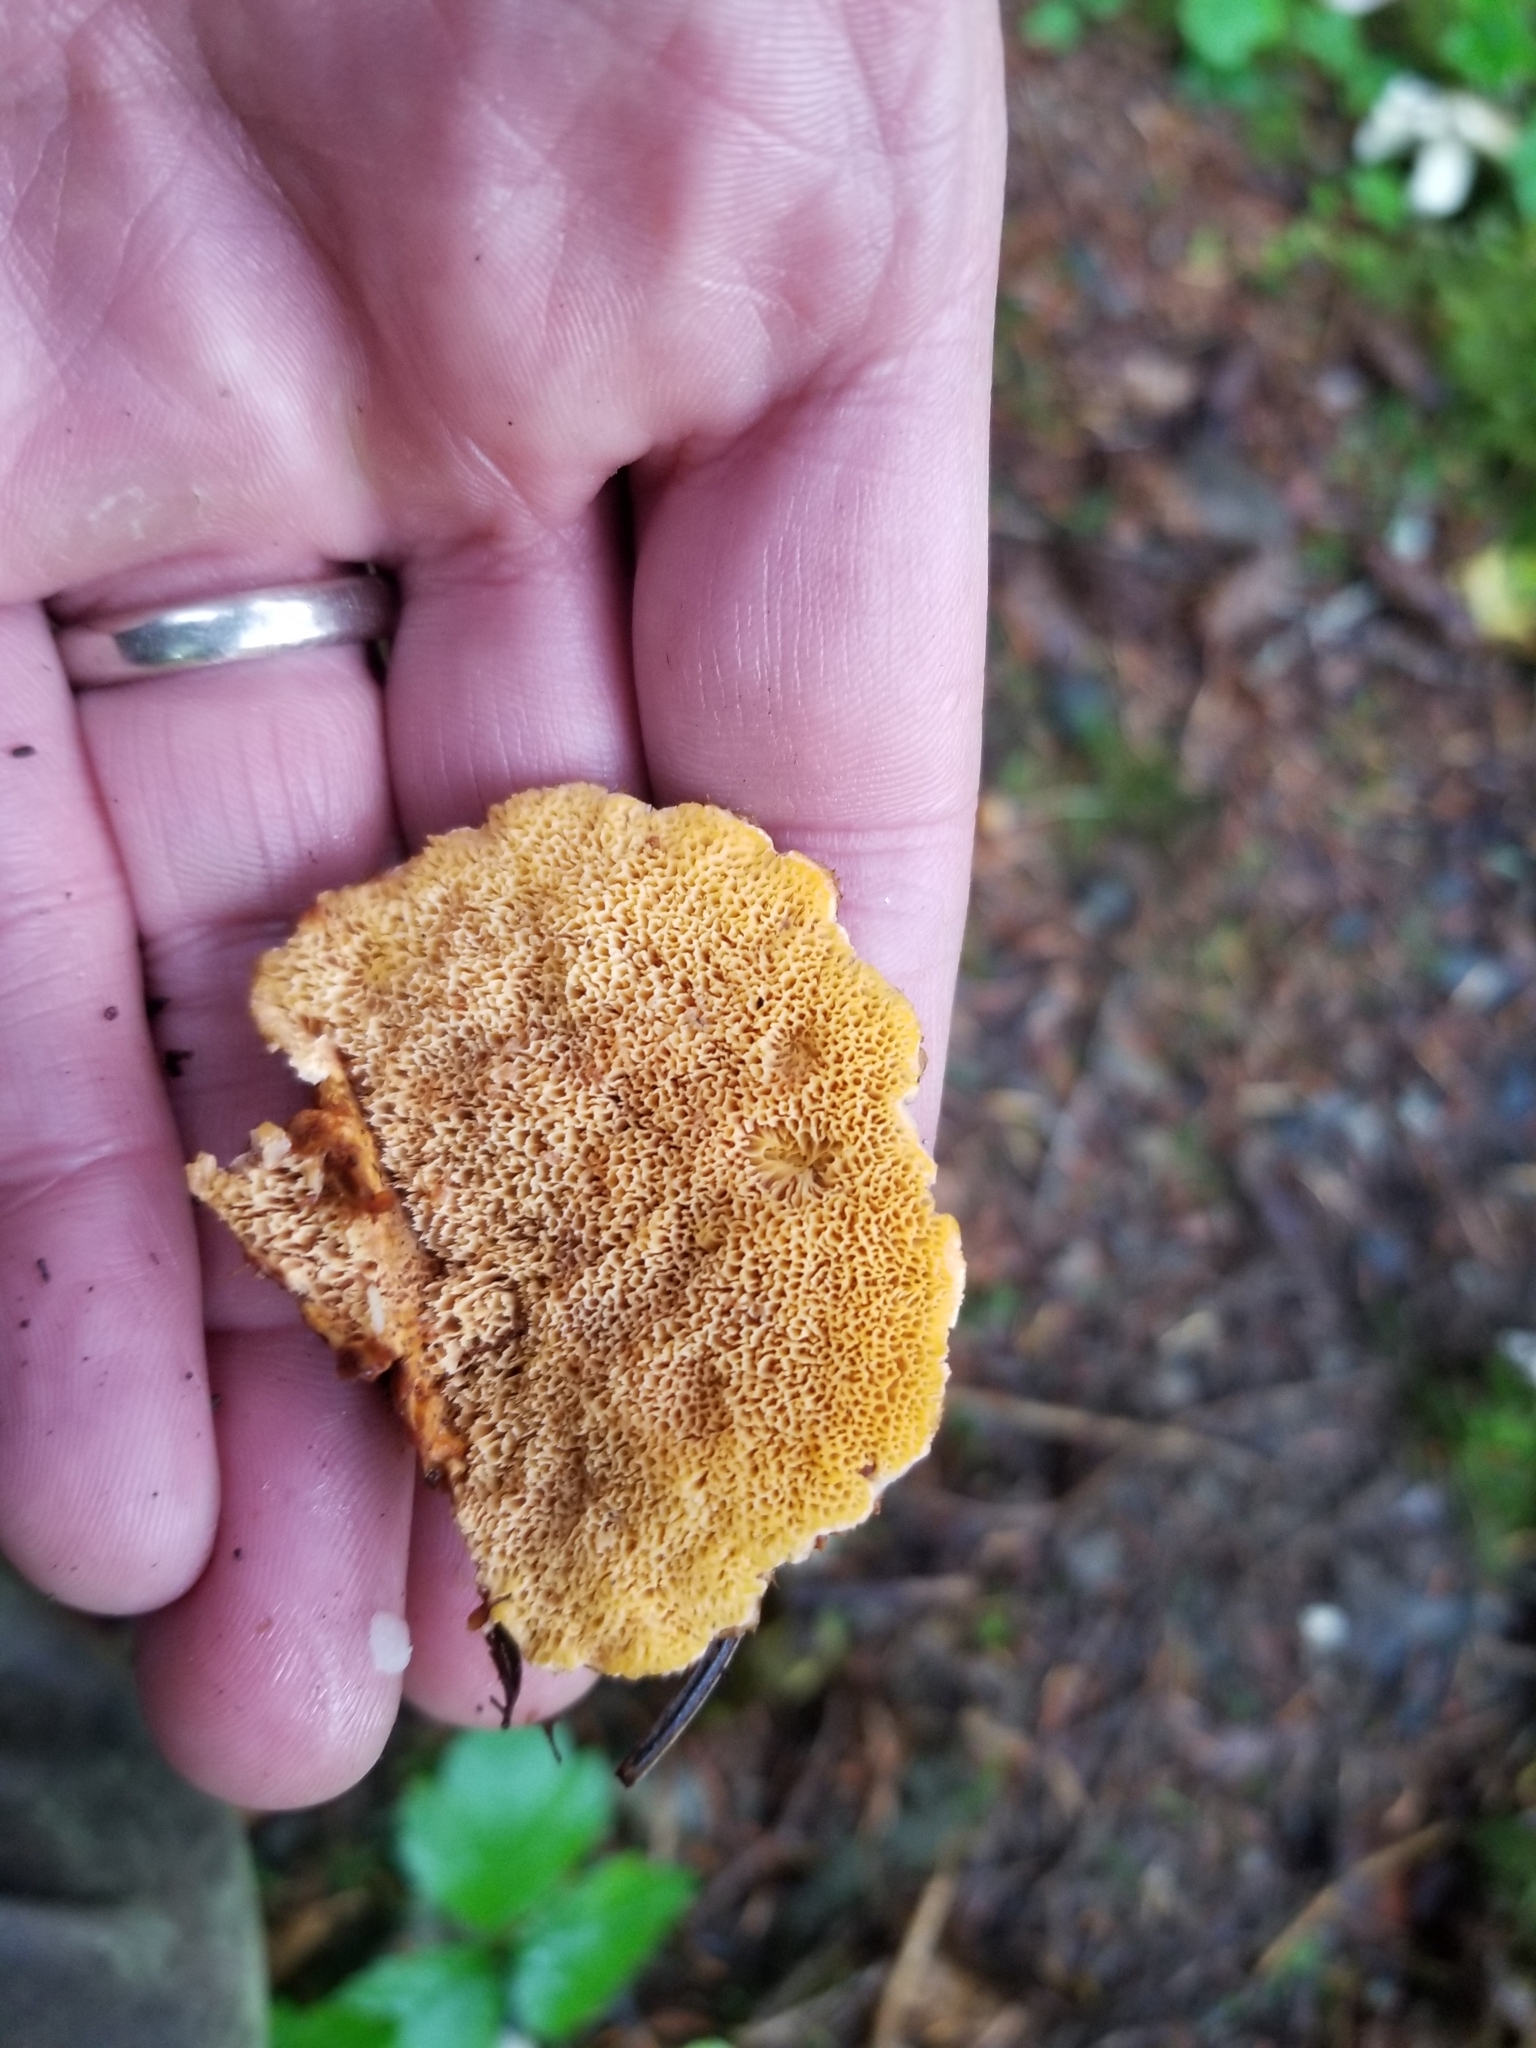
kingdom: Fungi
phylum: Basidiomycota
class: Agaricomycetes
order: Polyporales
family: Pycnoporellaceae
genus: Pycnoporellus
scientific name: Pycnoporellus fulgens
